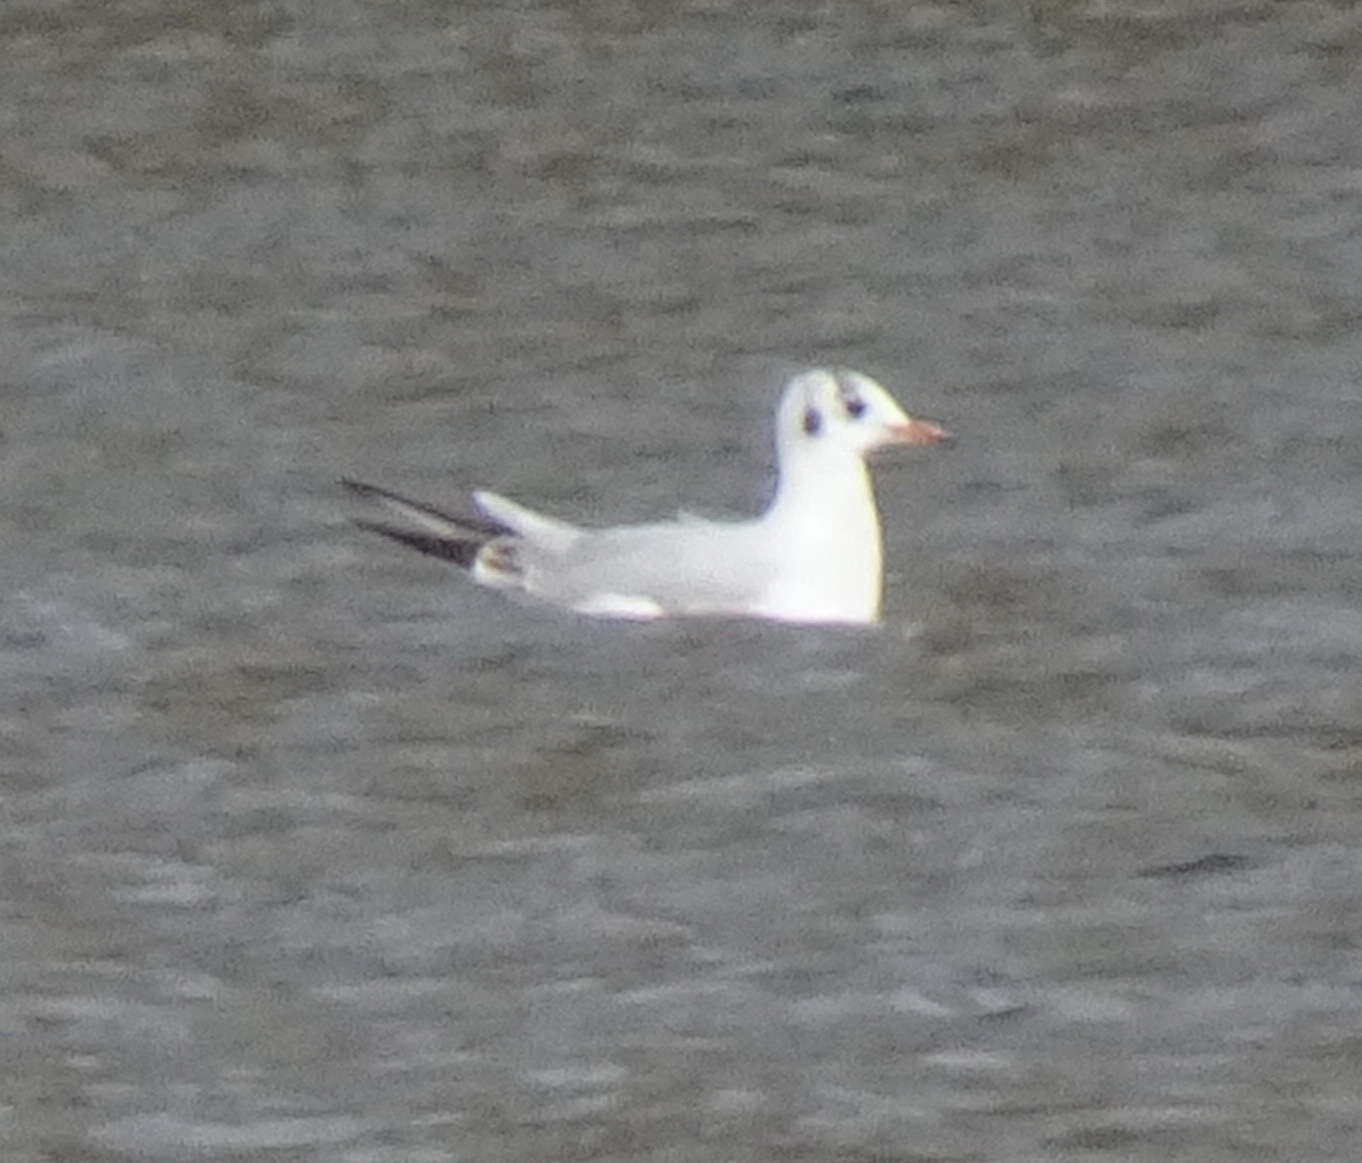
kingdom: Animalia
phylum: Chordata
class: Aves
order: Charadriiformes
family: Laridae
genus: Chroicocephalus
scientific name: Chroicocephalus ridibundus
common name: Black-headed gull
